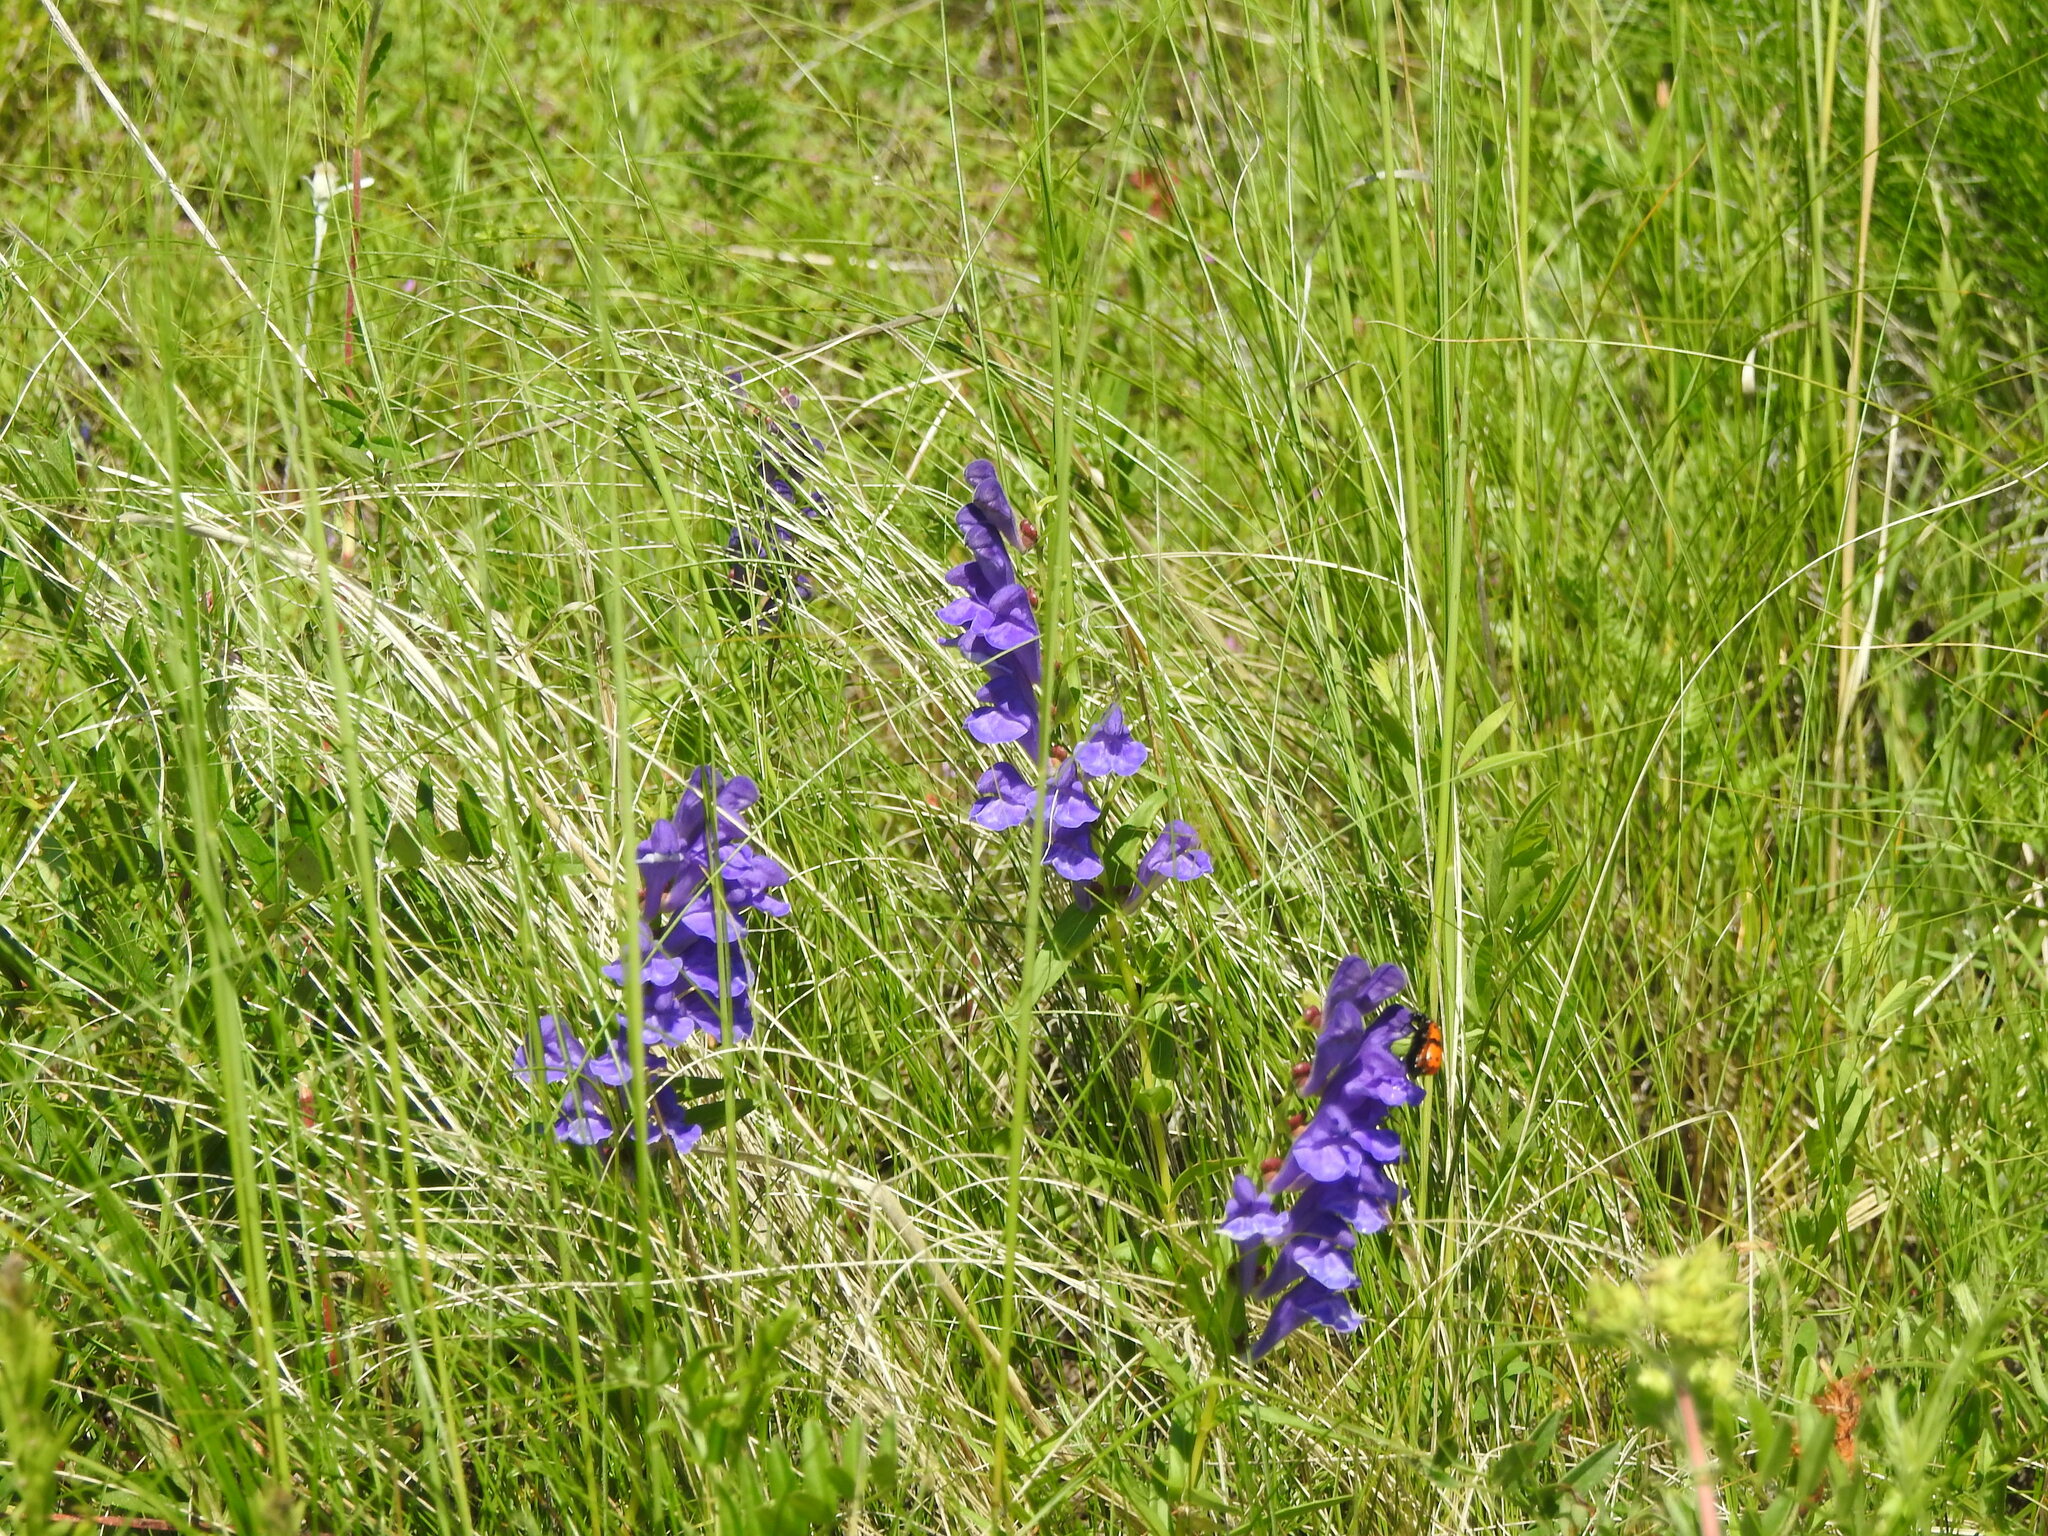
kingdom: Plantae
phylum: Tracheophyta
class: Magnoliopsida
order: Lamiales
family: Lamiaceae
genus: Scutellaria
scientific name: Scutellaria baicalensis
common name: Baikal skullcap
